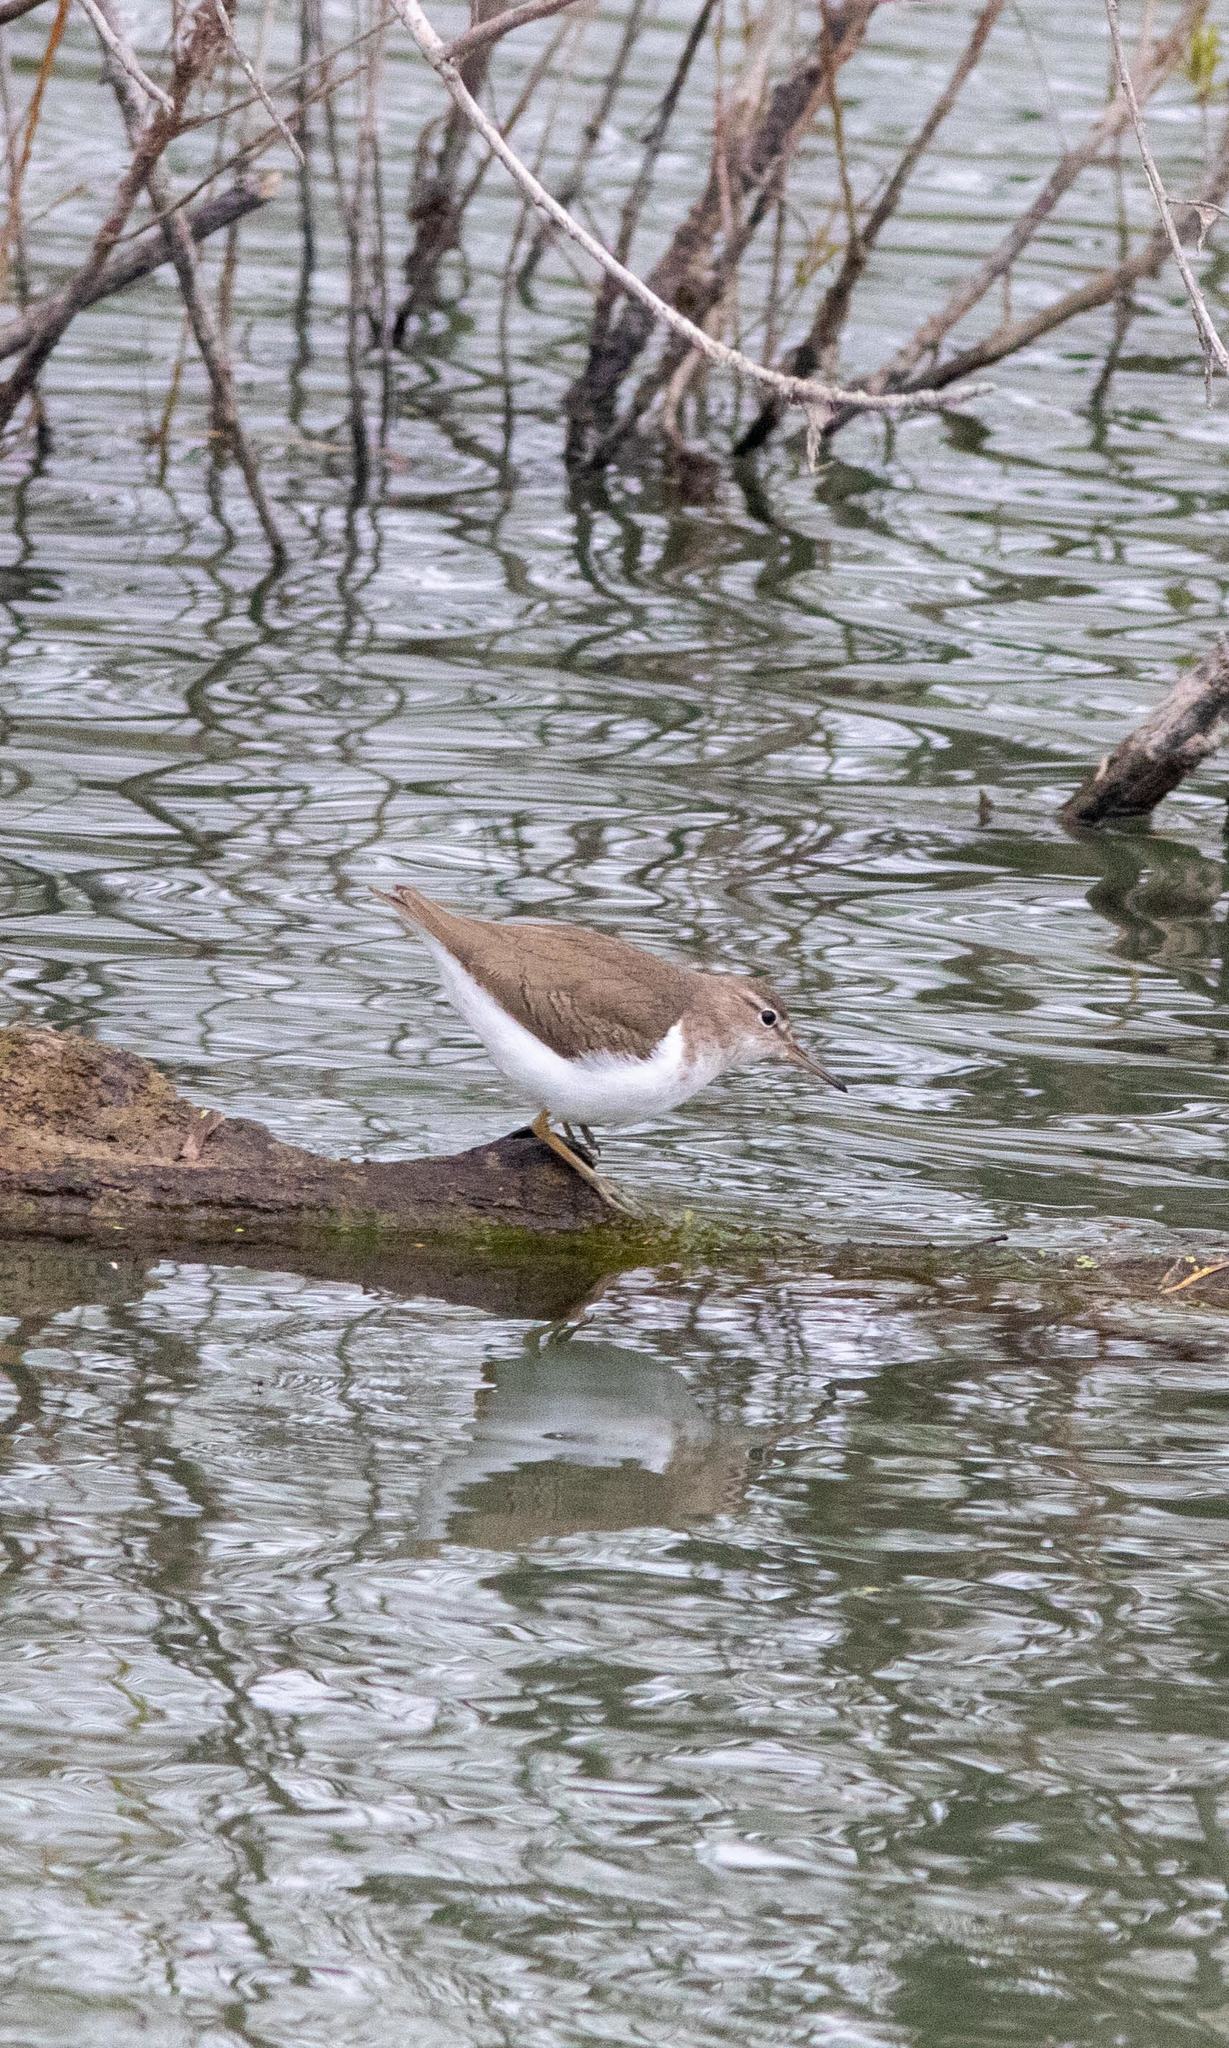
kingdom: Animalia
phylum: Chordata
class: Aves
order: Charadriiformes
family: Scolopacidae
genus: Actitis
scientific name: Actitis macularius
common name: Spotted sandpiper
